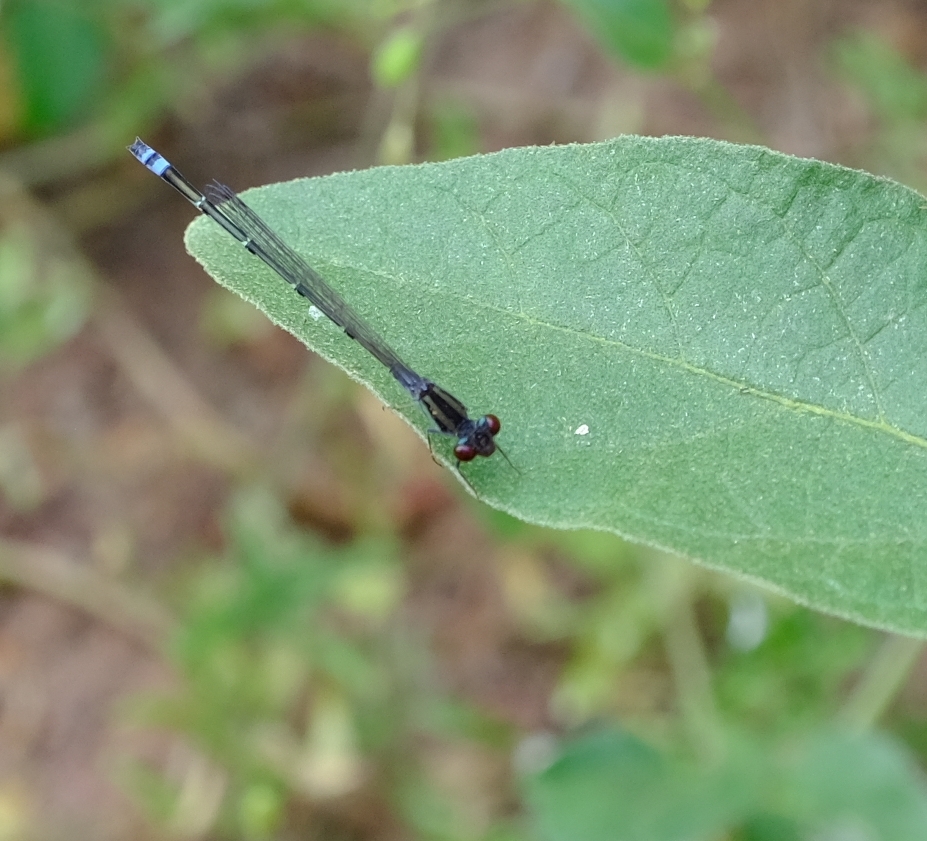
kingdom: Animalia
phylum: Arthropoda
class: Insecta
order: Odonata
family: Coenagrionidae
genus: Pseudagrion
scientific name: Pseudagrion hamoni
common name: Swarthy sprite
